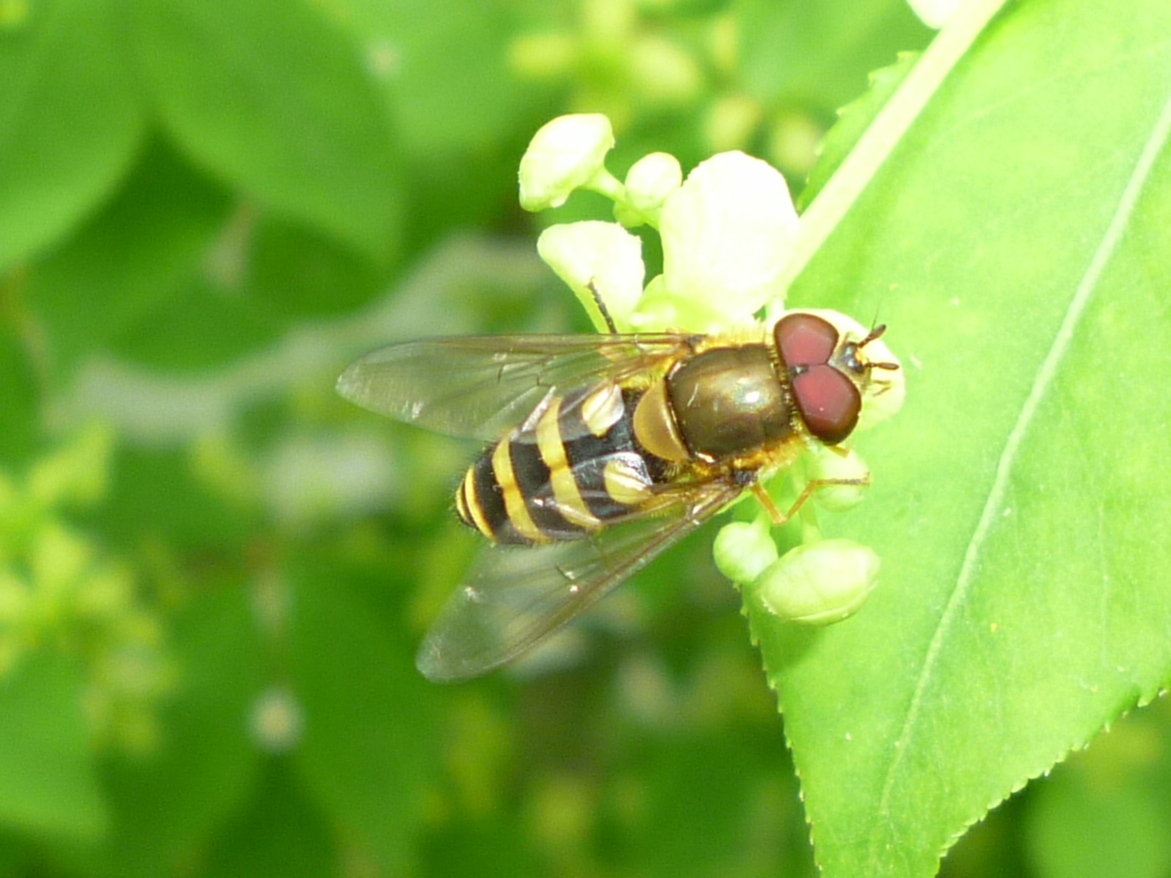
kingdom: Animalia
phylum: Arthropoda
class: Insecta
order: Diptera
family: Syrphidae
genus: Syrphus
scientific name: Syrphus
